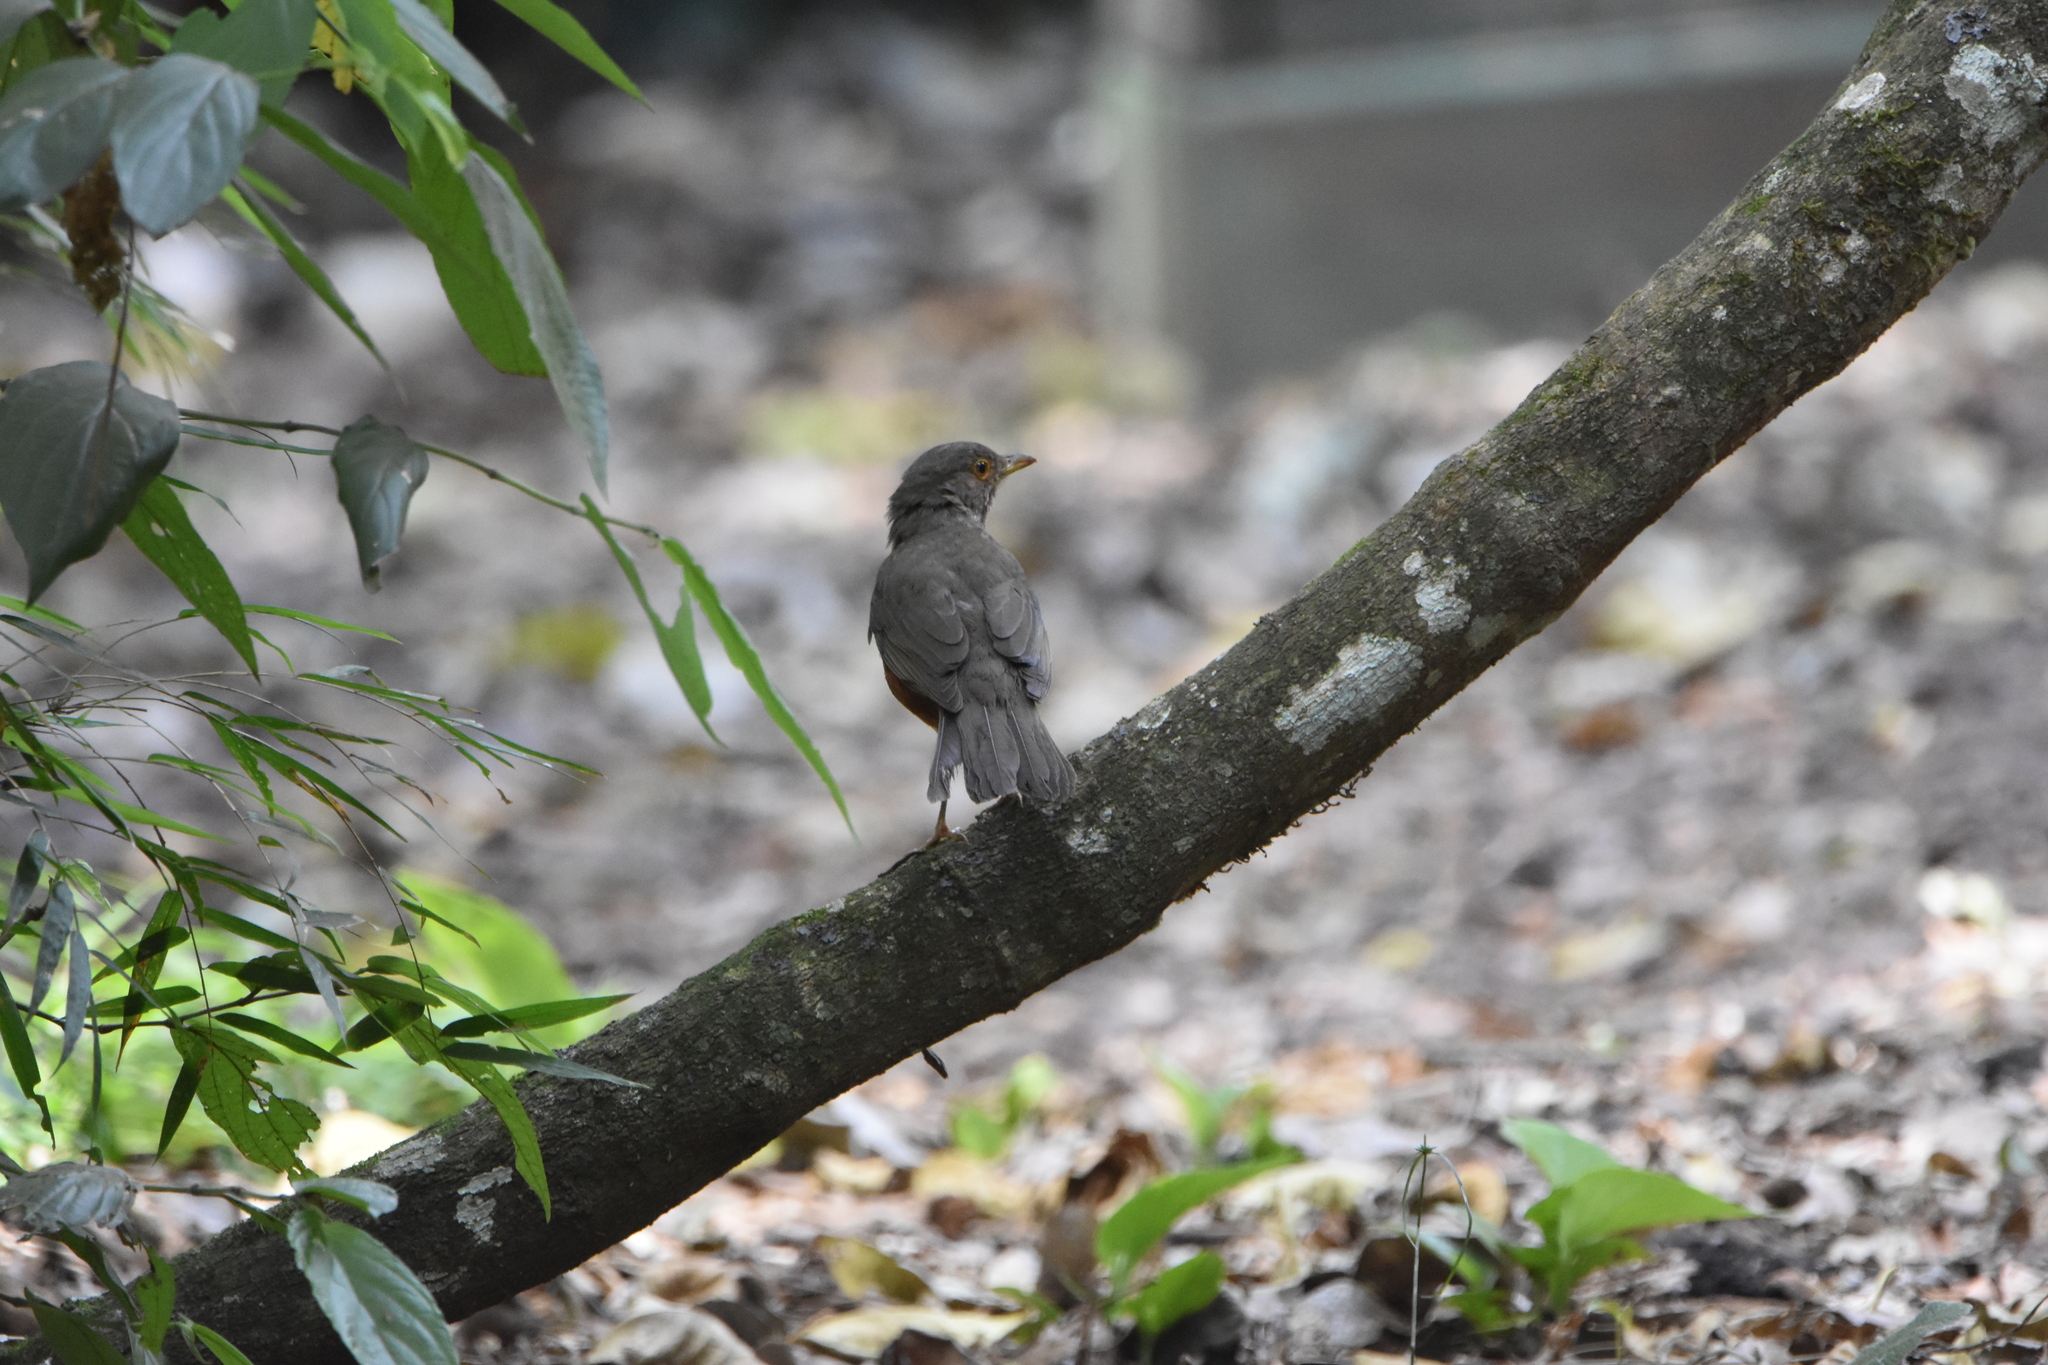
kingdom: Animalia
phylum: Chordata
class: Aves
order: Passeriformes
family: Turdidae
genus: Turdus
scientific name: Turdus rufiventris
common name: Rufous-bellied thrush
